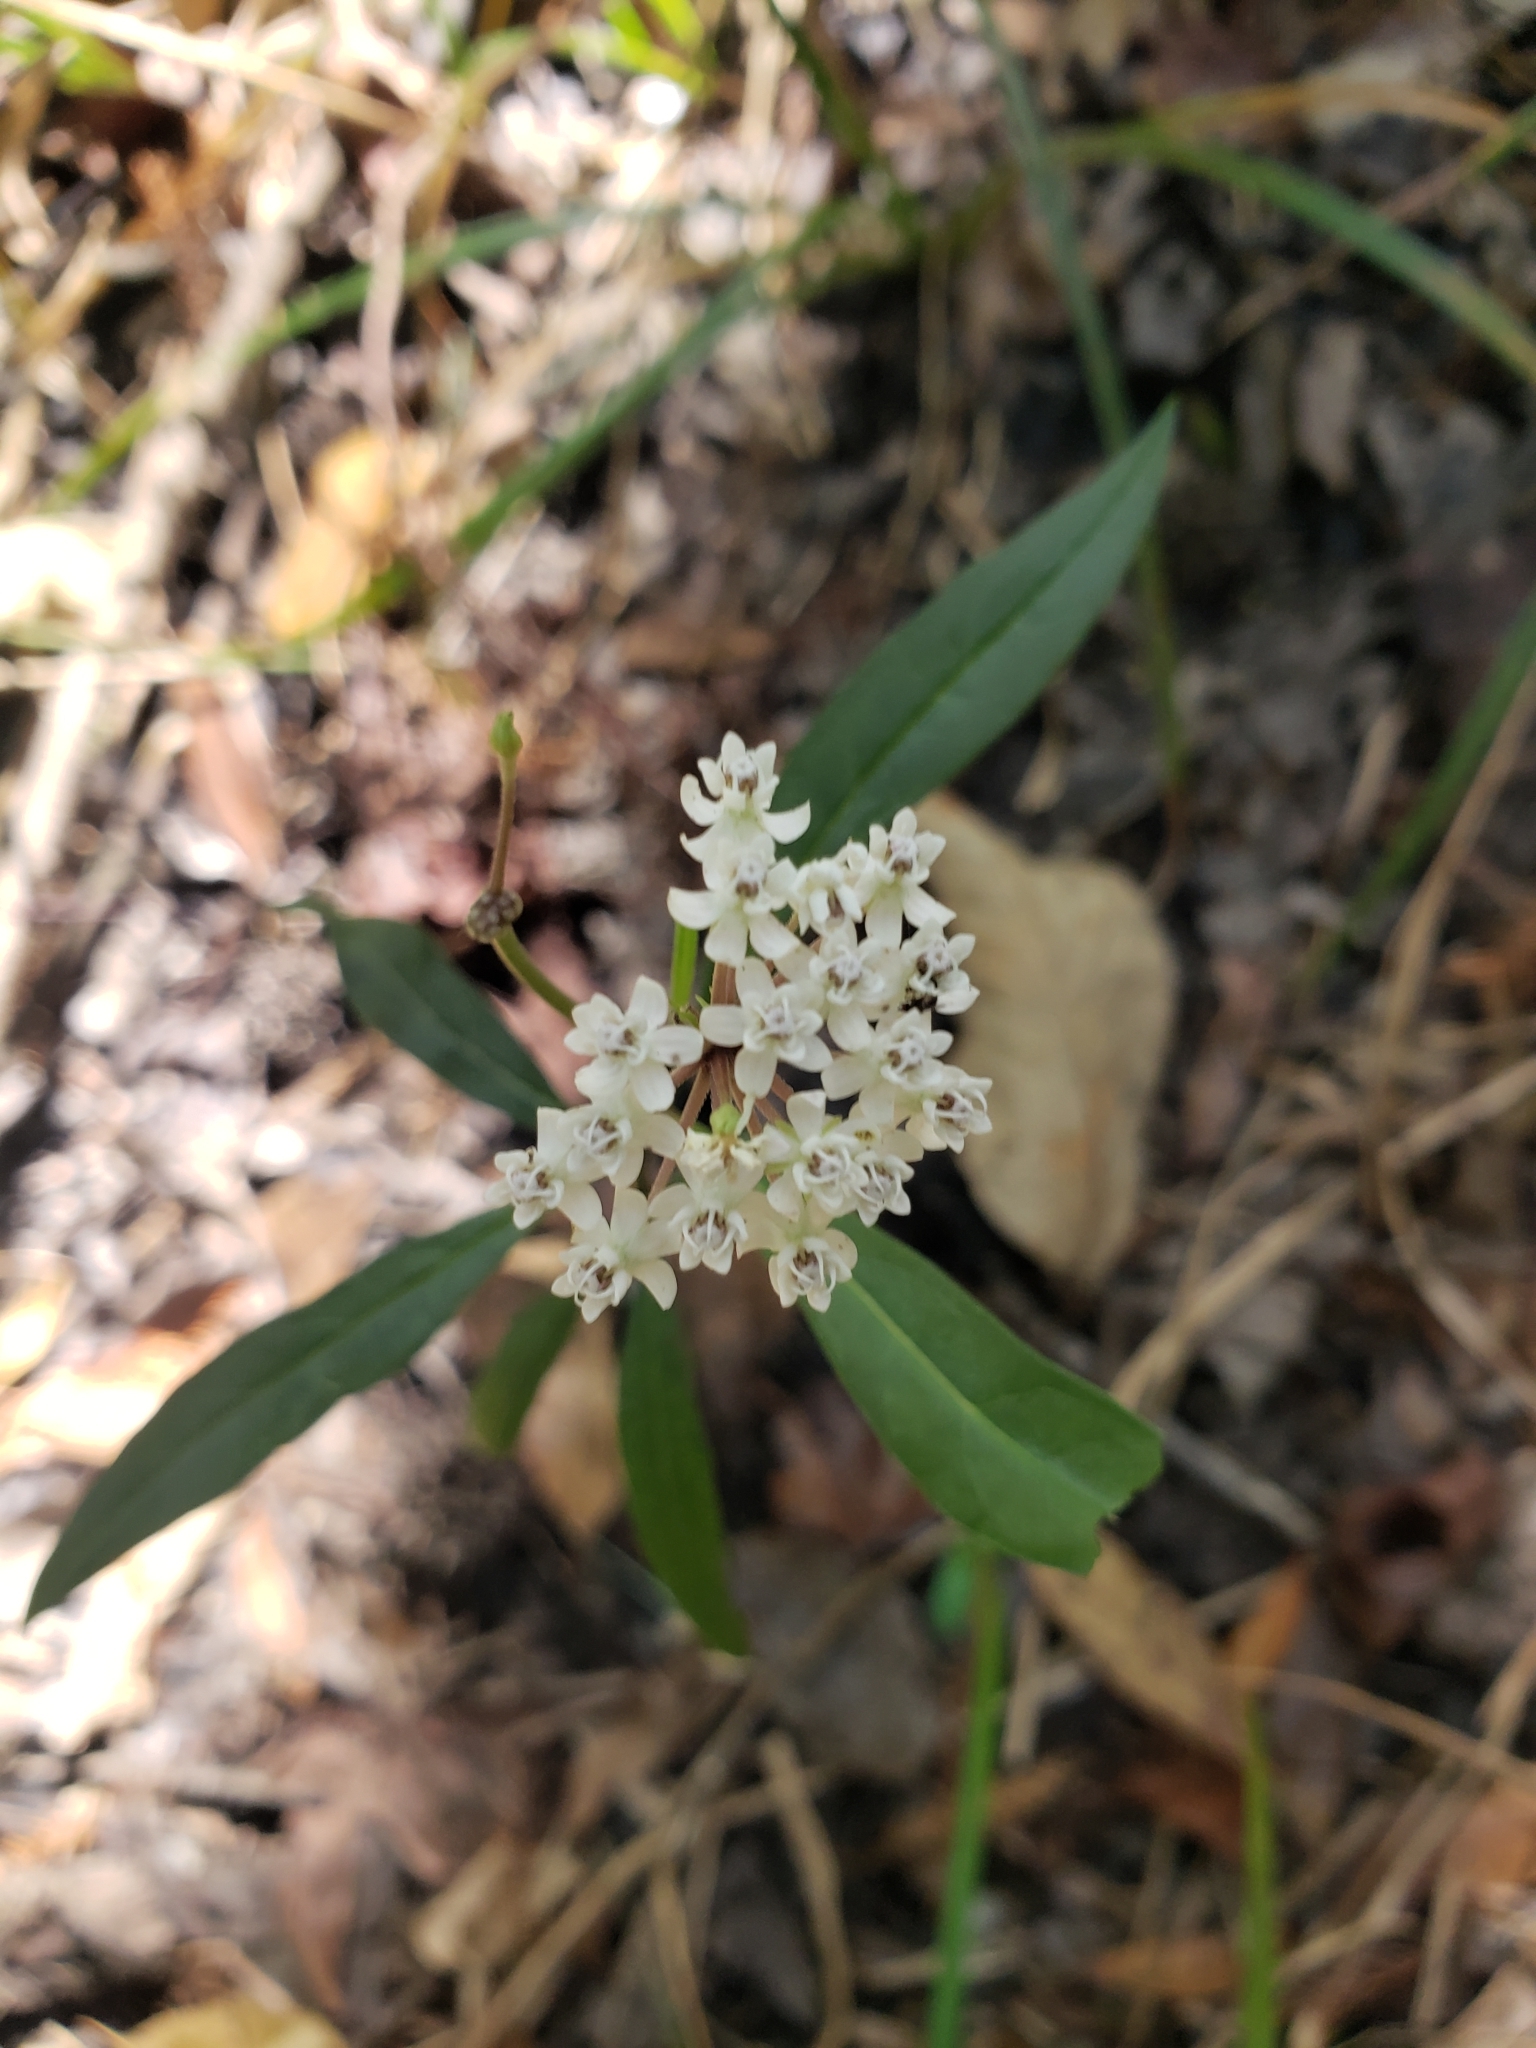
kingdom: Plantae
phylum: Tracheophyta
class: Magnoliopsida
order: Gentianales
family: Apocynaceae
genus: Asclepias
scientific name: Asclepias perennis
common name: Smooth-seed milkweed
